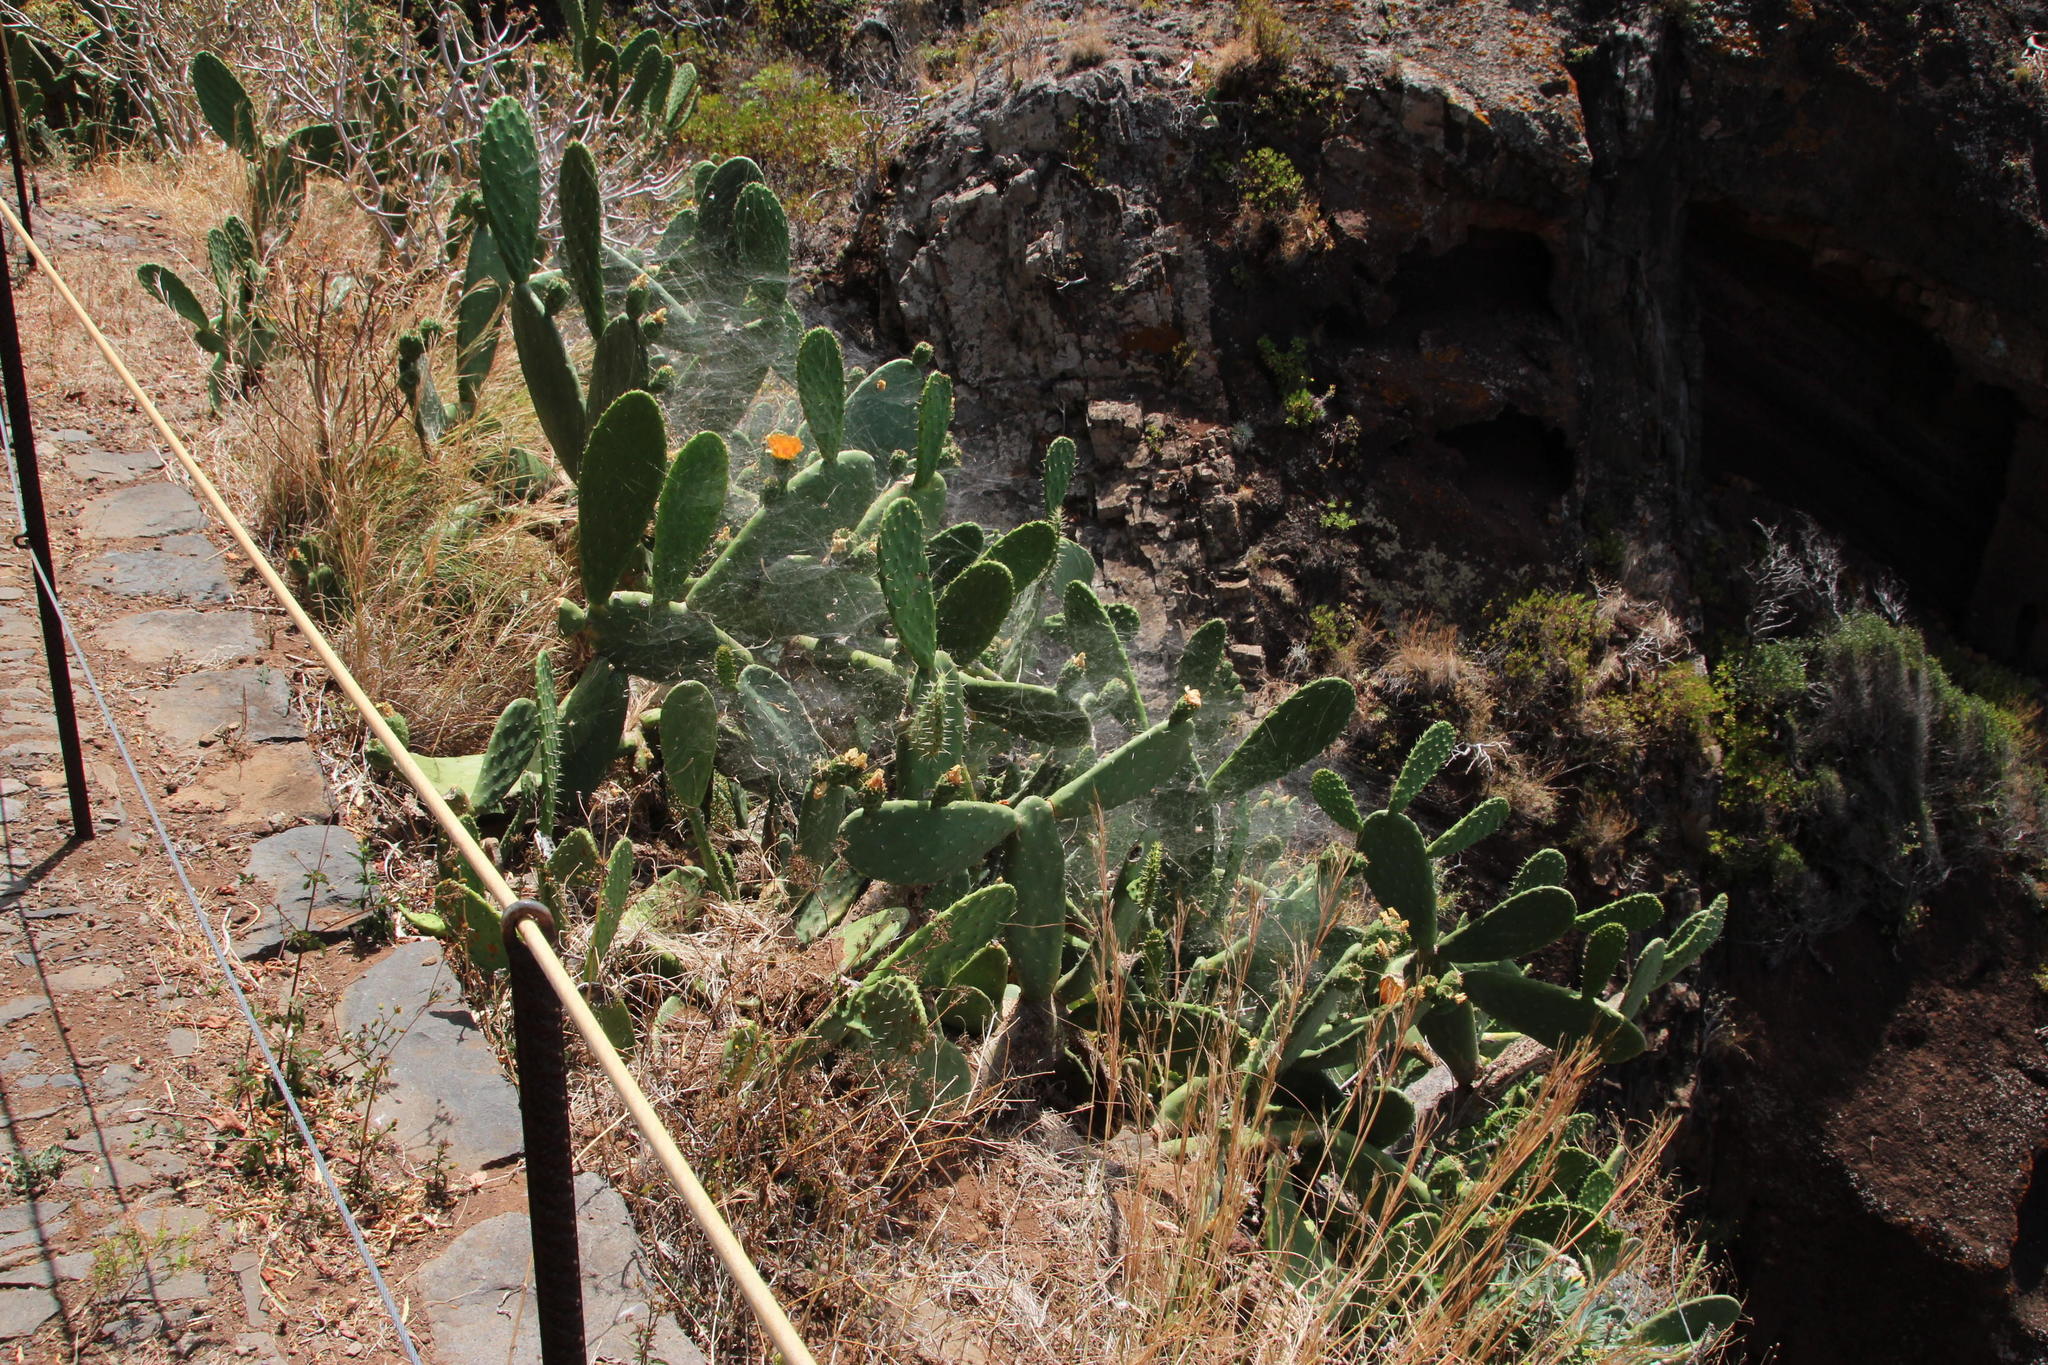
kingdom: Animalia
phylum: Arthropoda
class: Arachnida
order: Araneae
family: Araneidae
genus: Cyrtophora
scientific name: Cyrtophora citricola
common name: Orb weavers
